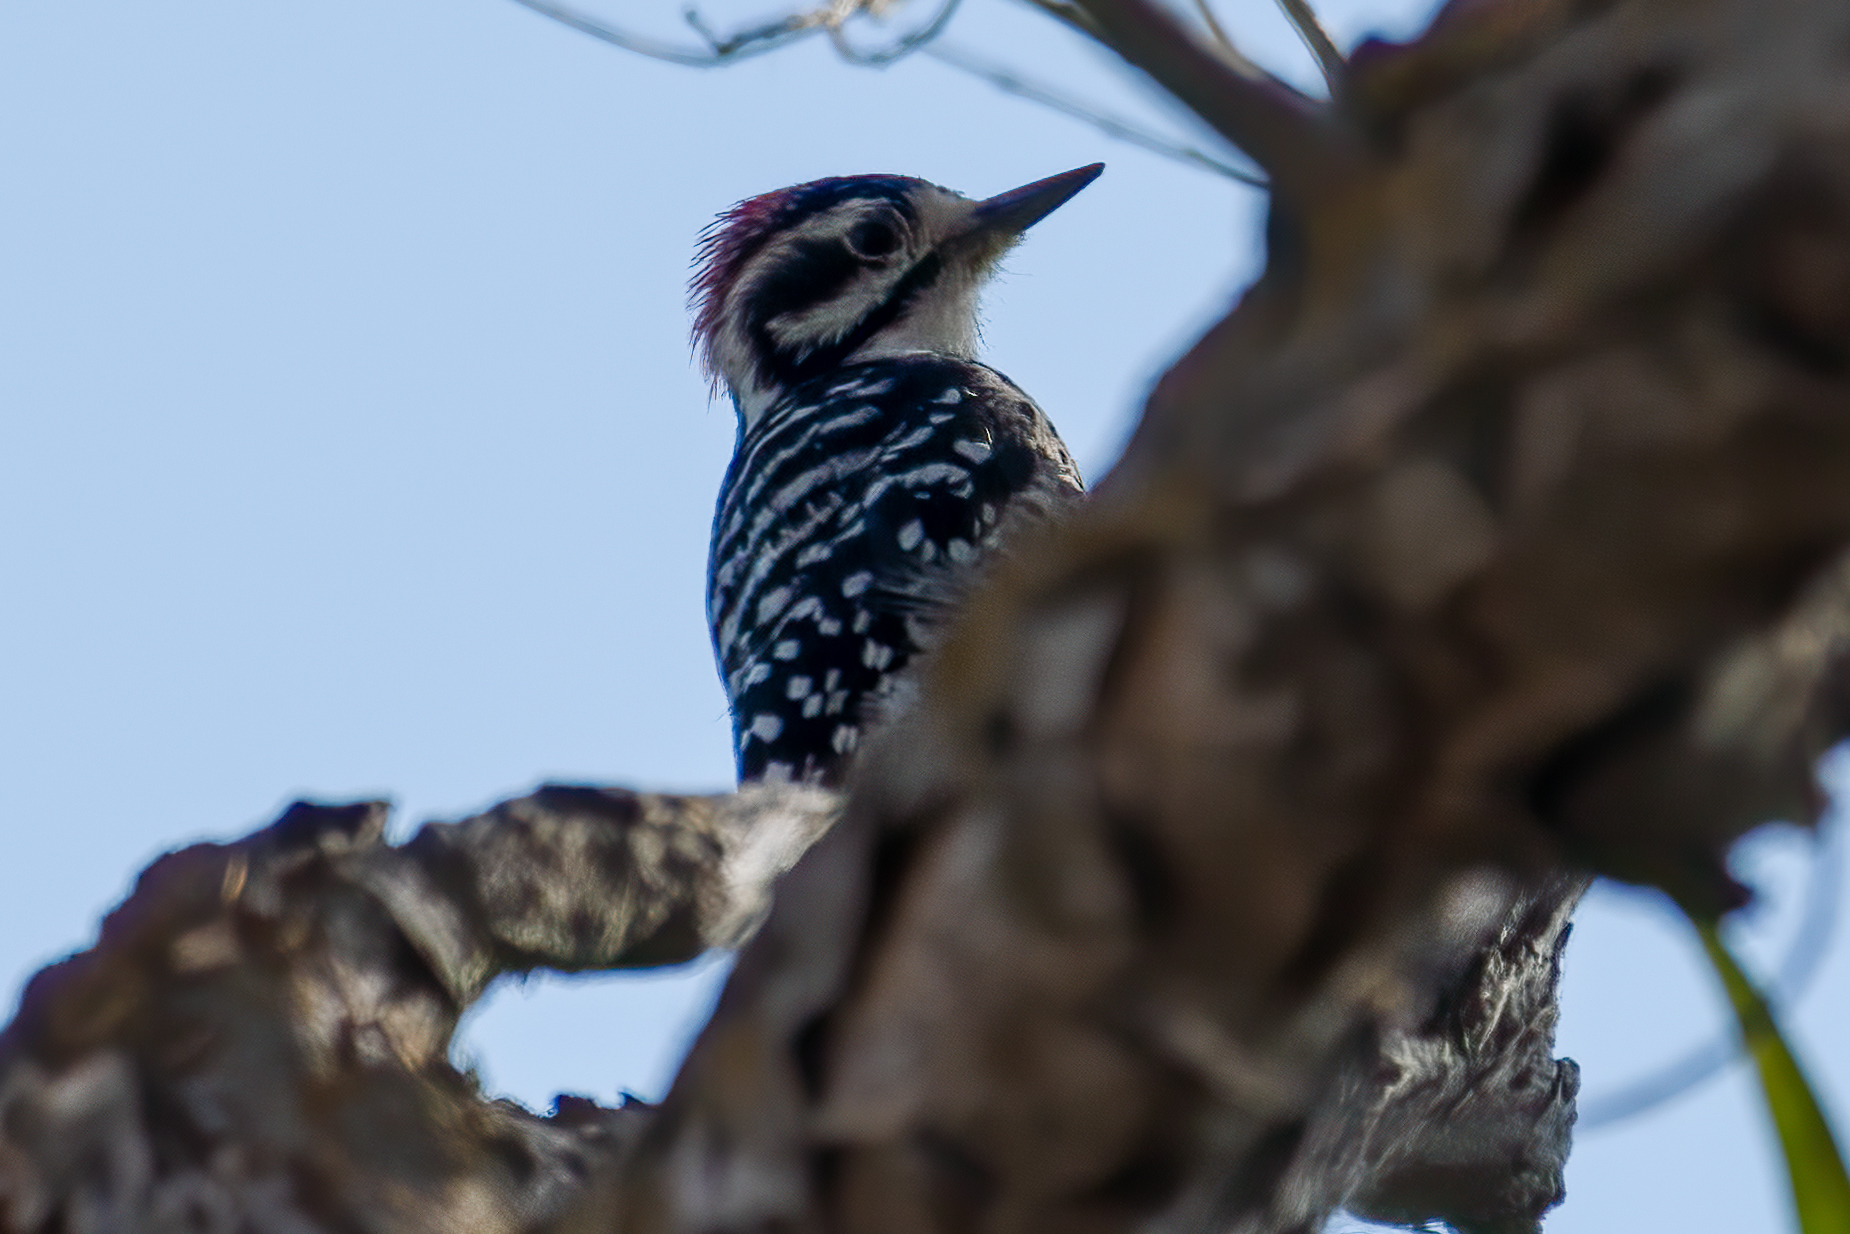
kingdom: Animalia
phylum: Chordata
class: Aves
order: Piciformes
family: Picidae
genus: Dryobates
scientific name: Dryobates nuttallii
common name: Nuttall's woodpecker
